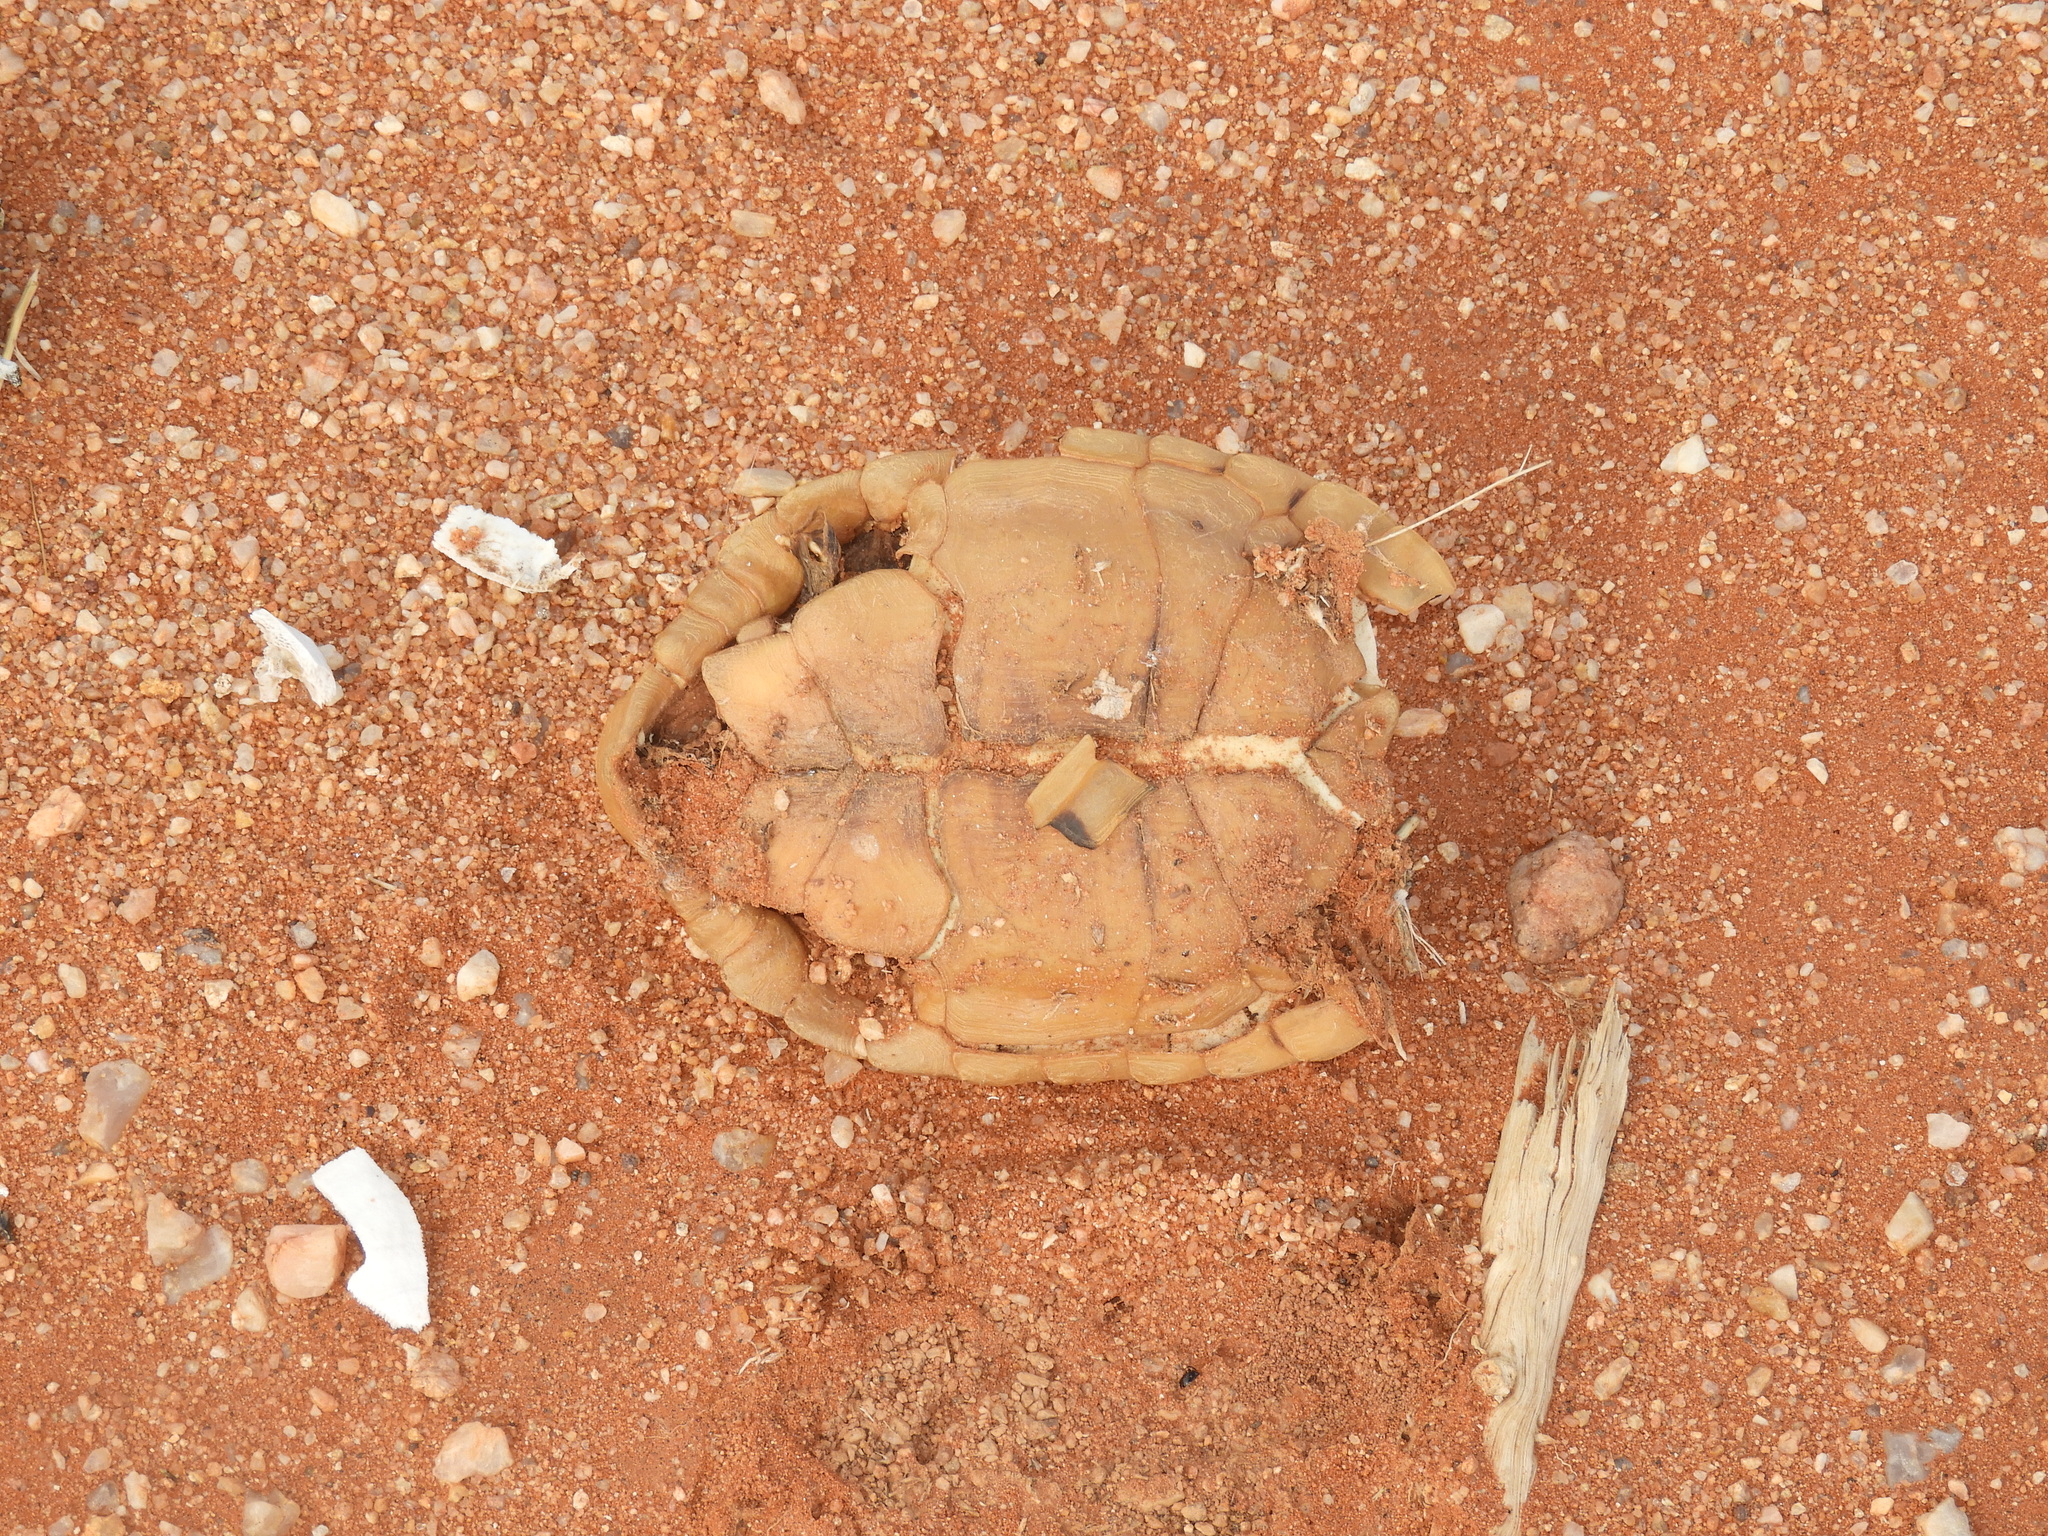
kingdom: Animalia
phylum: Chordata
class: Testudines
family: Testudinidae
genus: Psammobates
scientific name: Psammobates tentorius
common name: Tent tortoise
